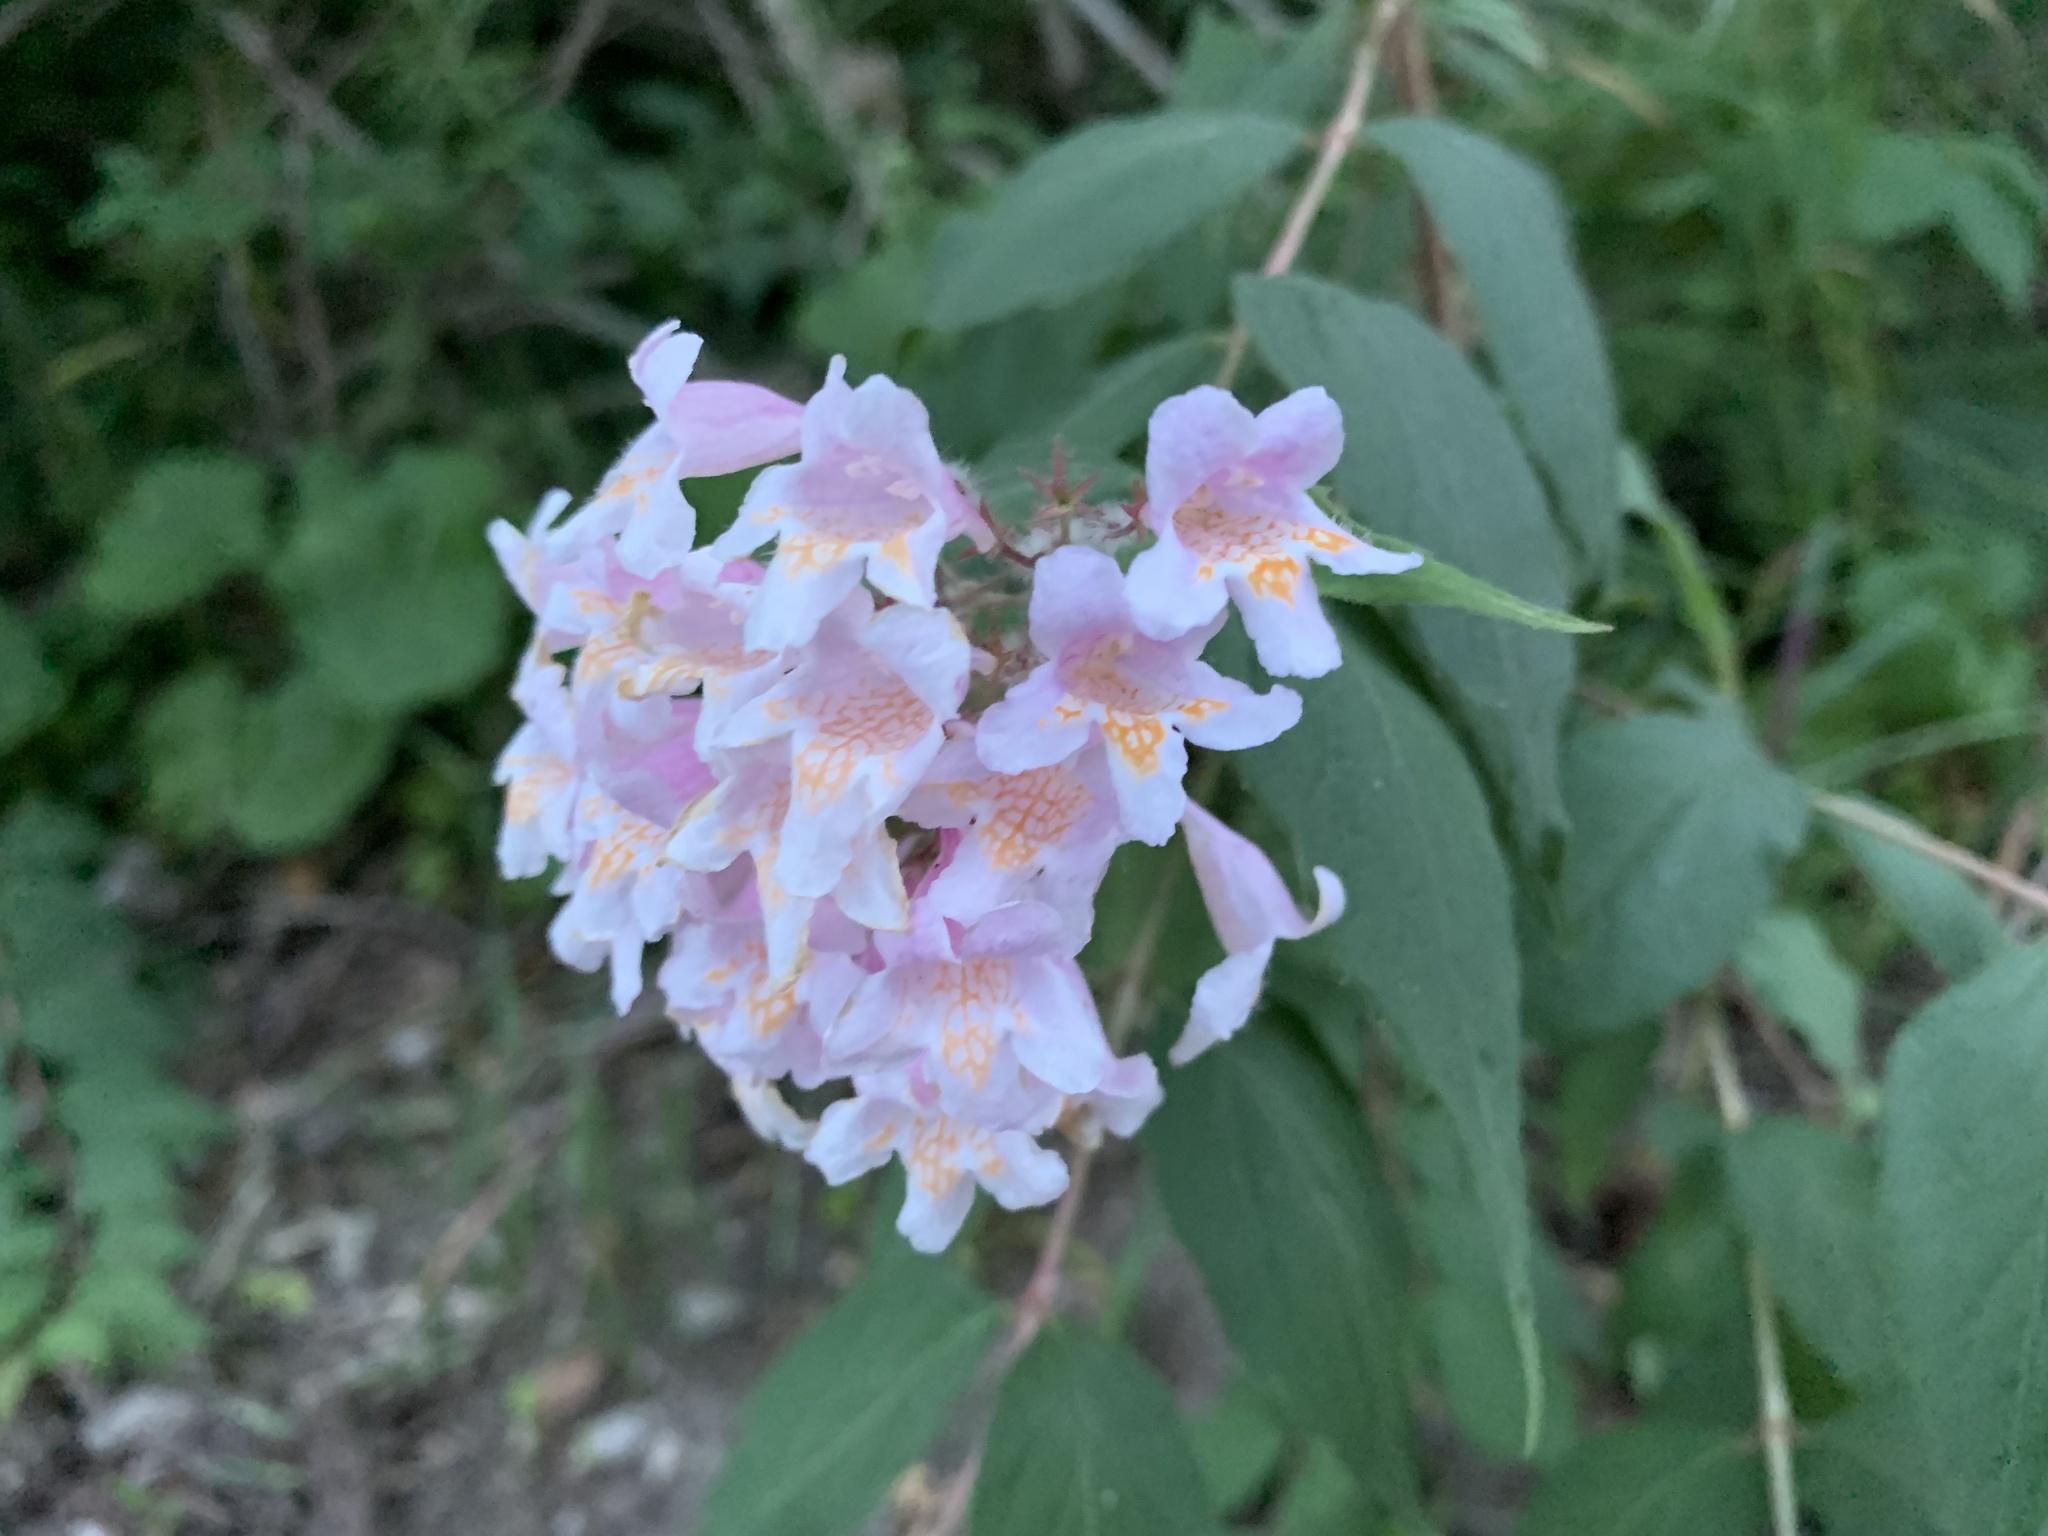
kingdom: Plantae
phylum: Tracheophyta
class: Magnoliopsida
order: Dipsacales
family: Caprifoliaceae
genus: Kolkwitzia
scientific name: Kolkwitzia amabilis
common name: Beautybush
